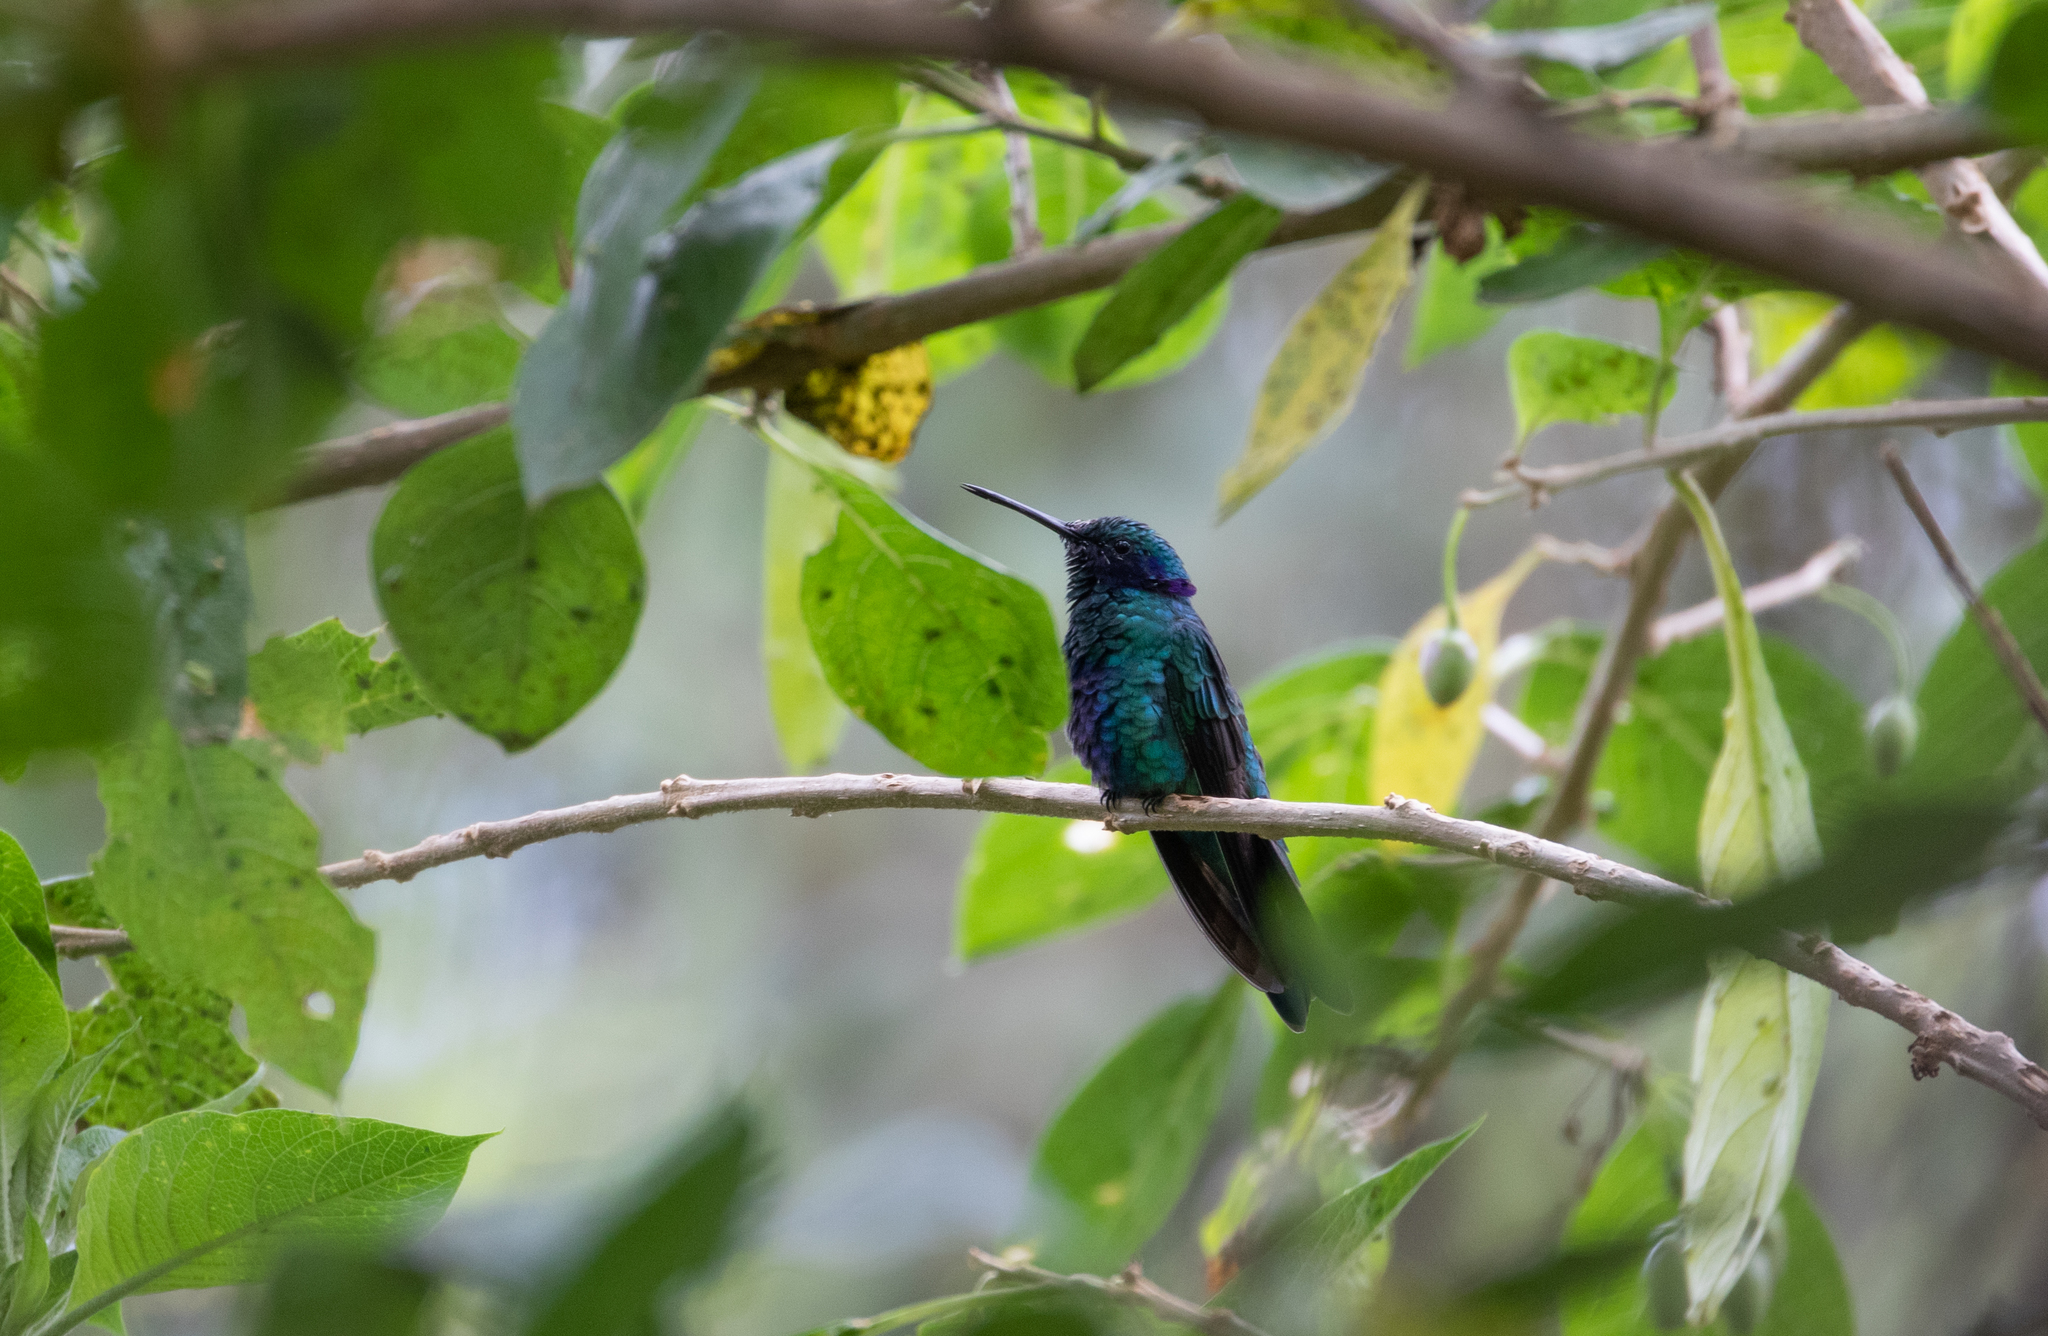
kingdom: Animalia
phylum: Chordata
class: Aves
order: Apodiformes
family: Trochilidae
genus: Colibri
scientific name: Colibri coruscans
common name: Sparkling violetear
